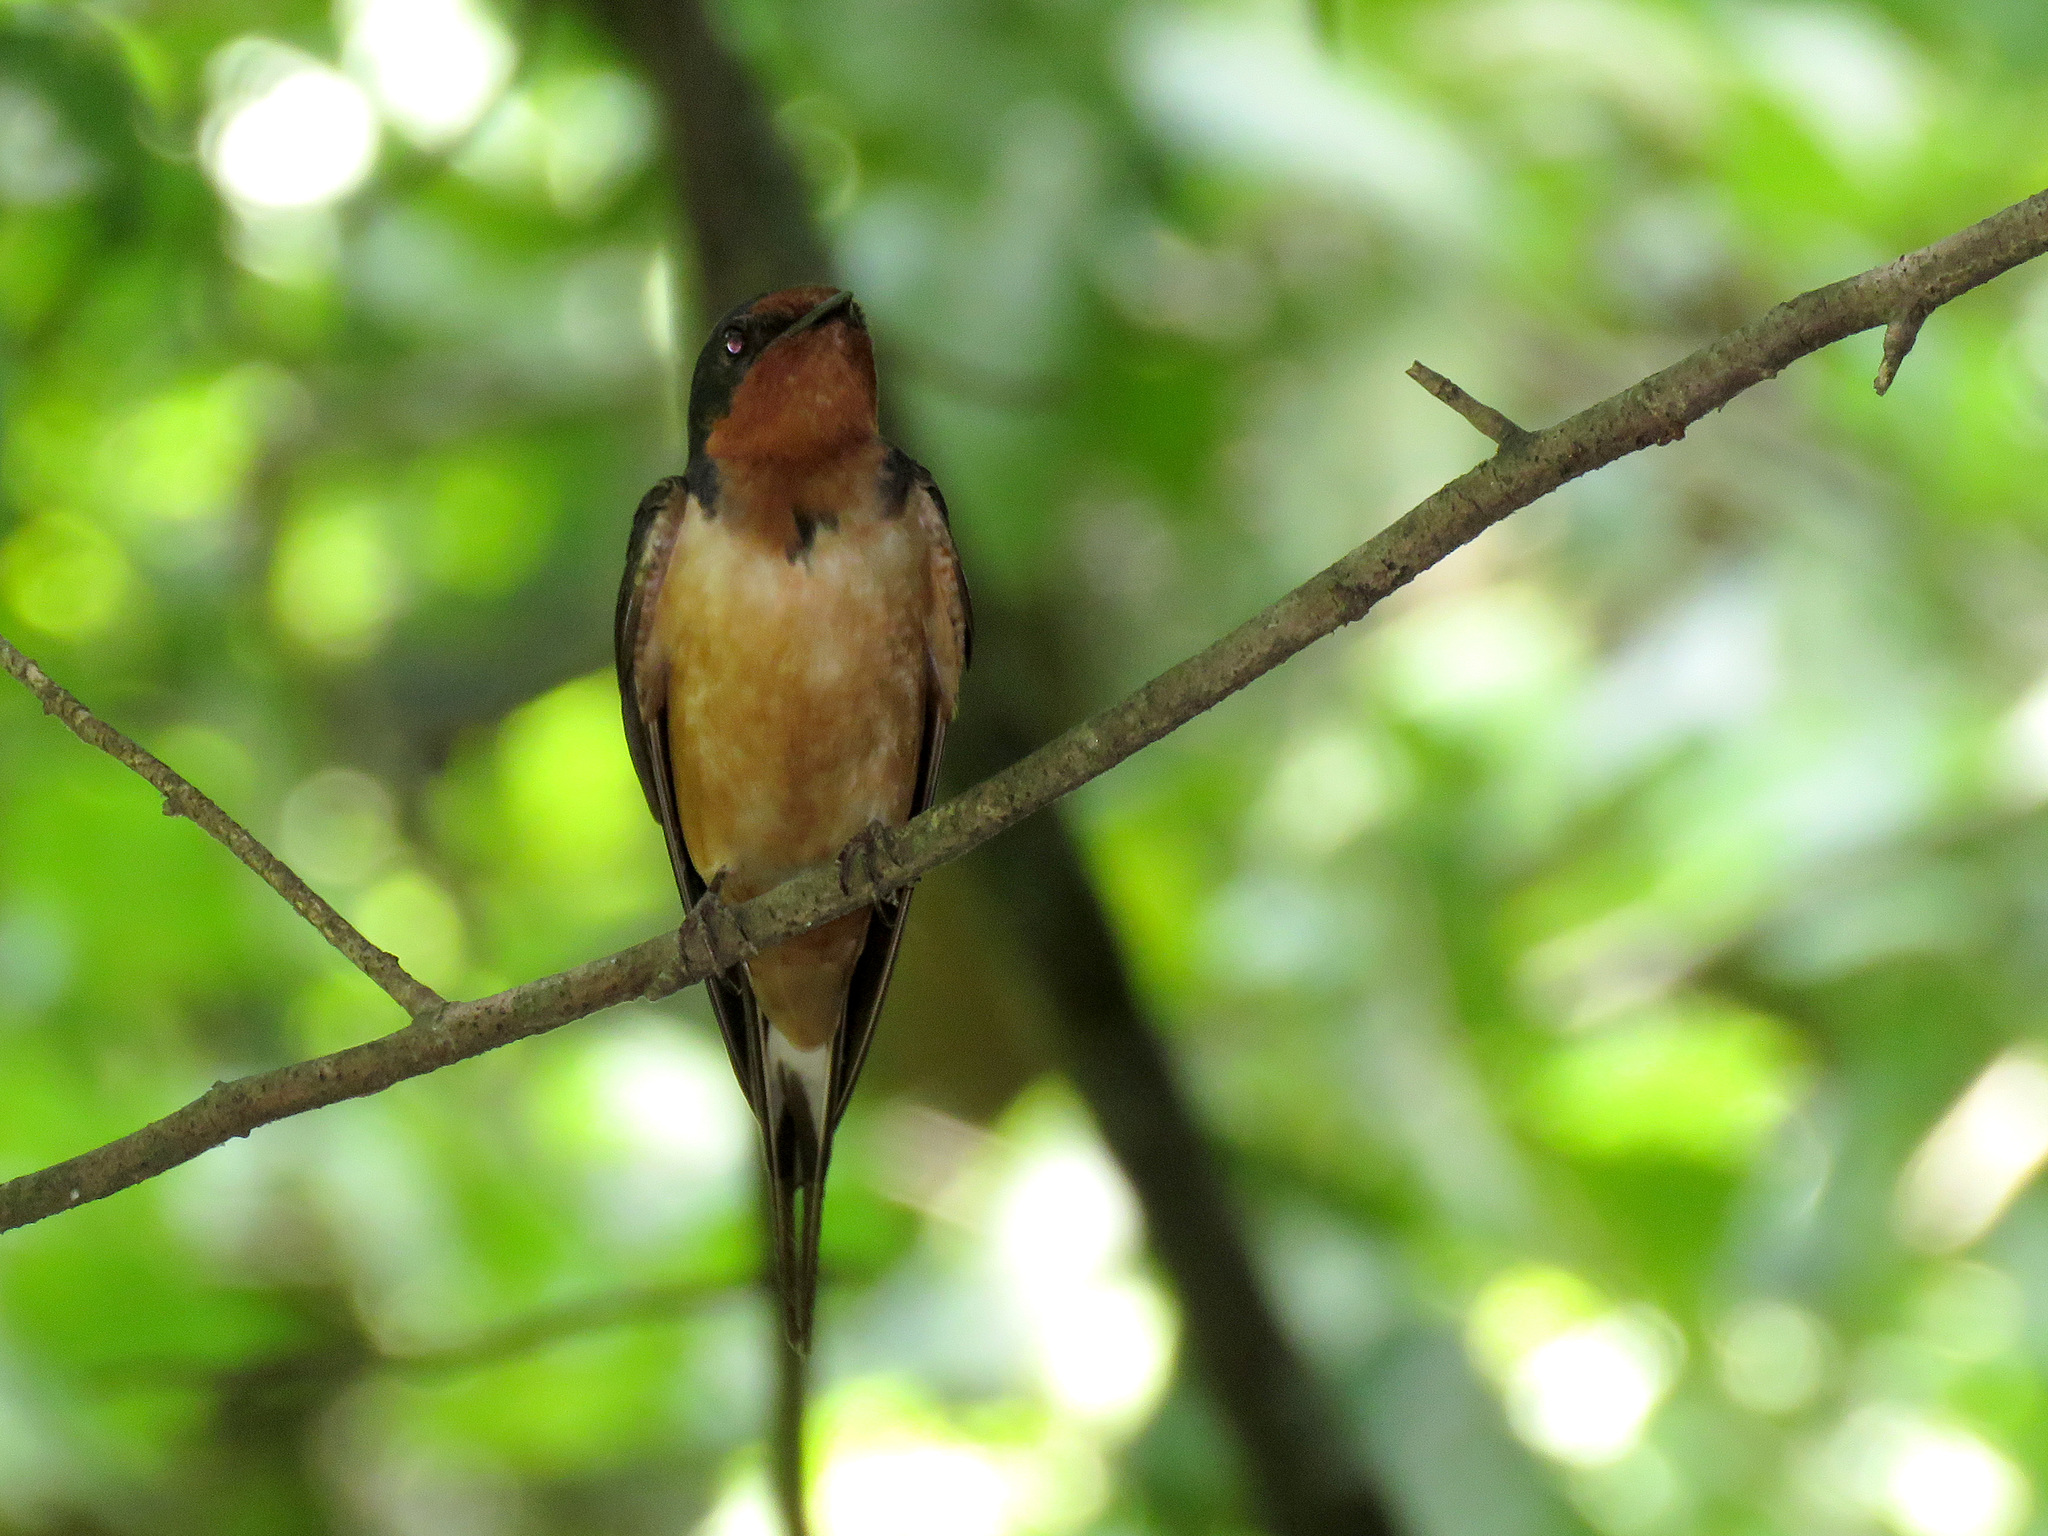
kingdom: Animalia
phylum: Chordata
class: Aves
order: Passeriformes
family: Hirundinidae
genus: Hirundo
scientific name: Hirundo rustica
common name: Barn swallow
